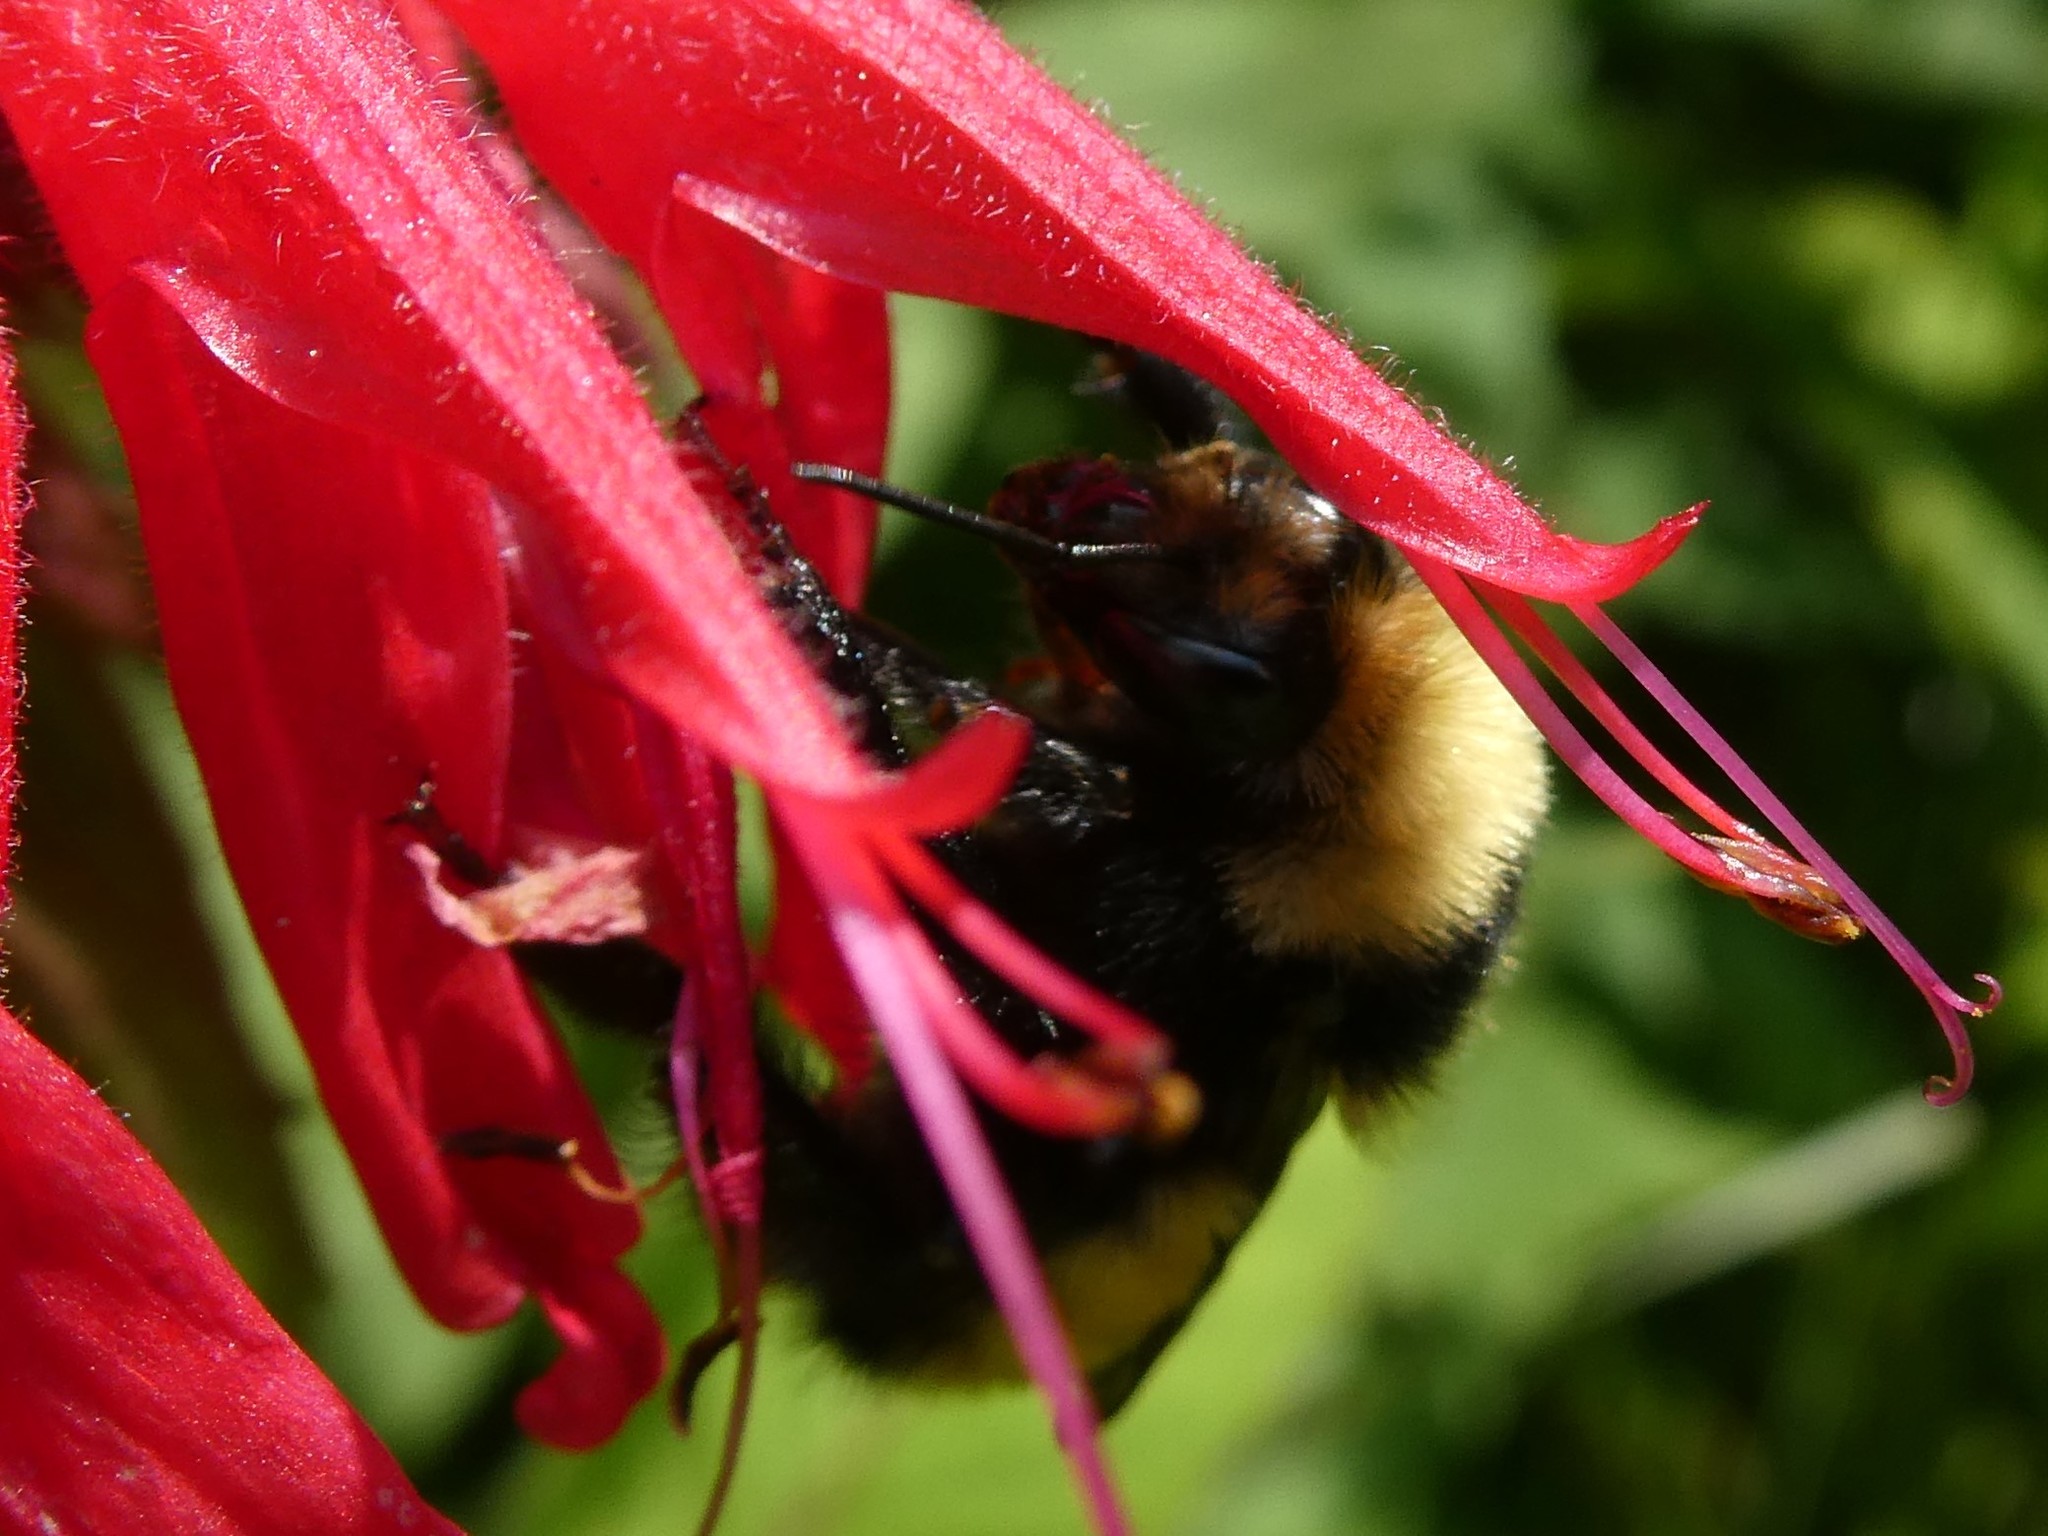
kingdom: Animalia
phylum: Arthropoda
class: Insecta
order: Hymenoptera
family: Apidae
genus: Bombus
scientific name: Bombus borealis
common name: Northern amber bumble bee
